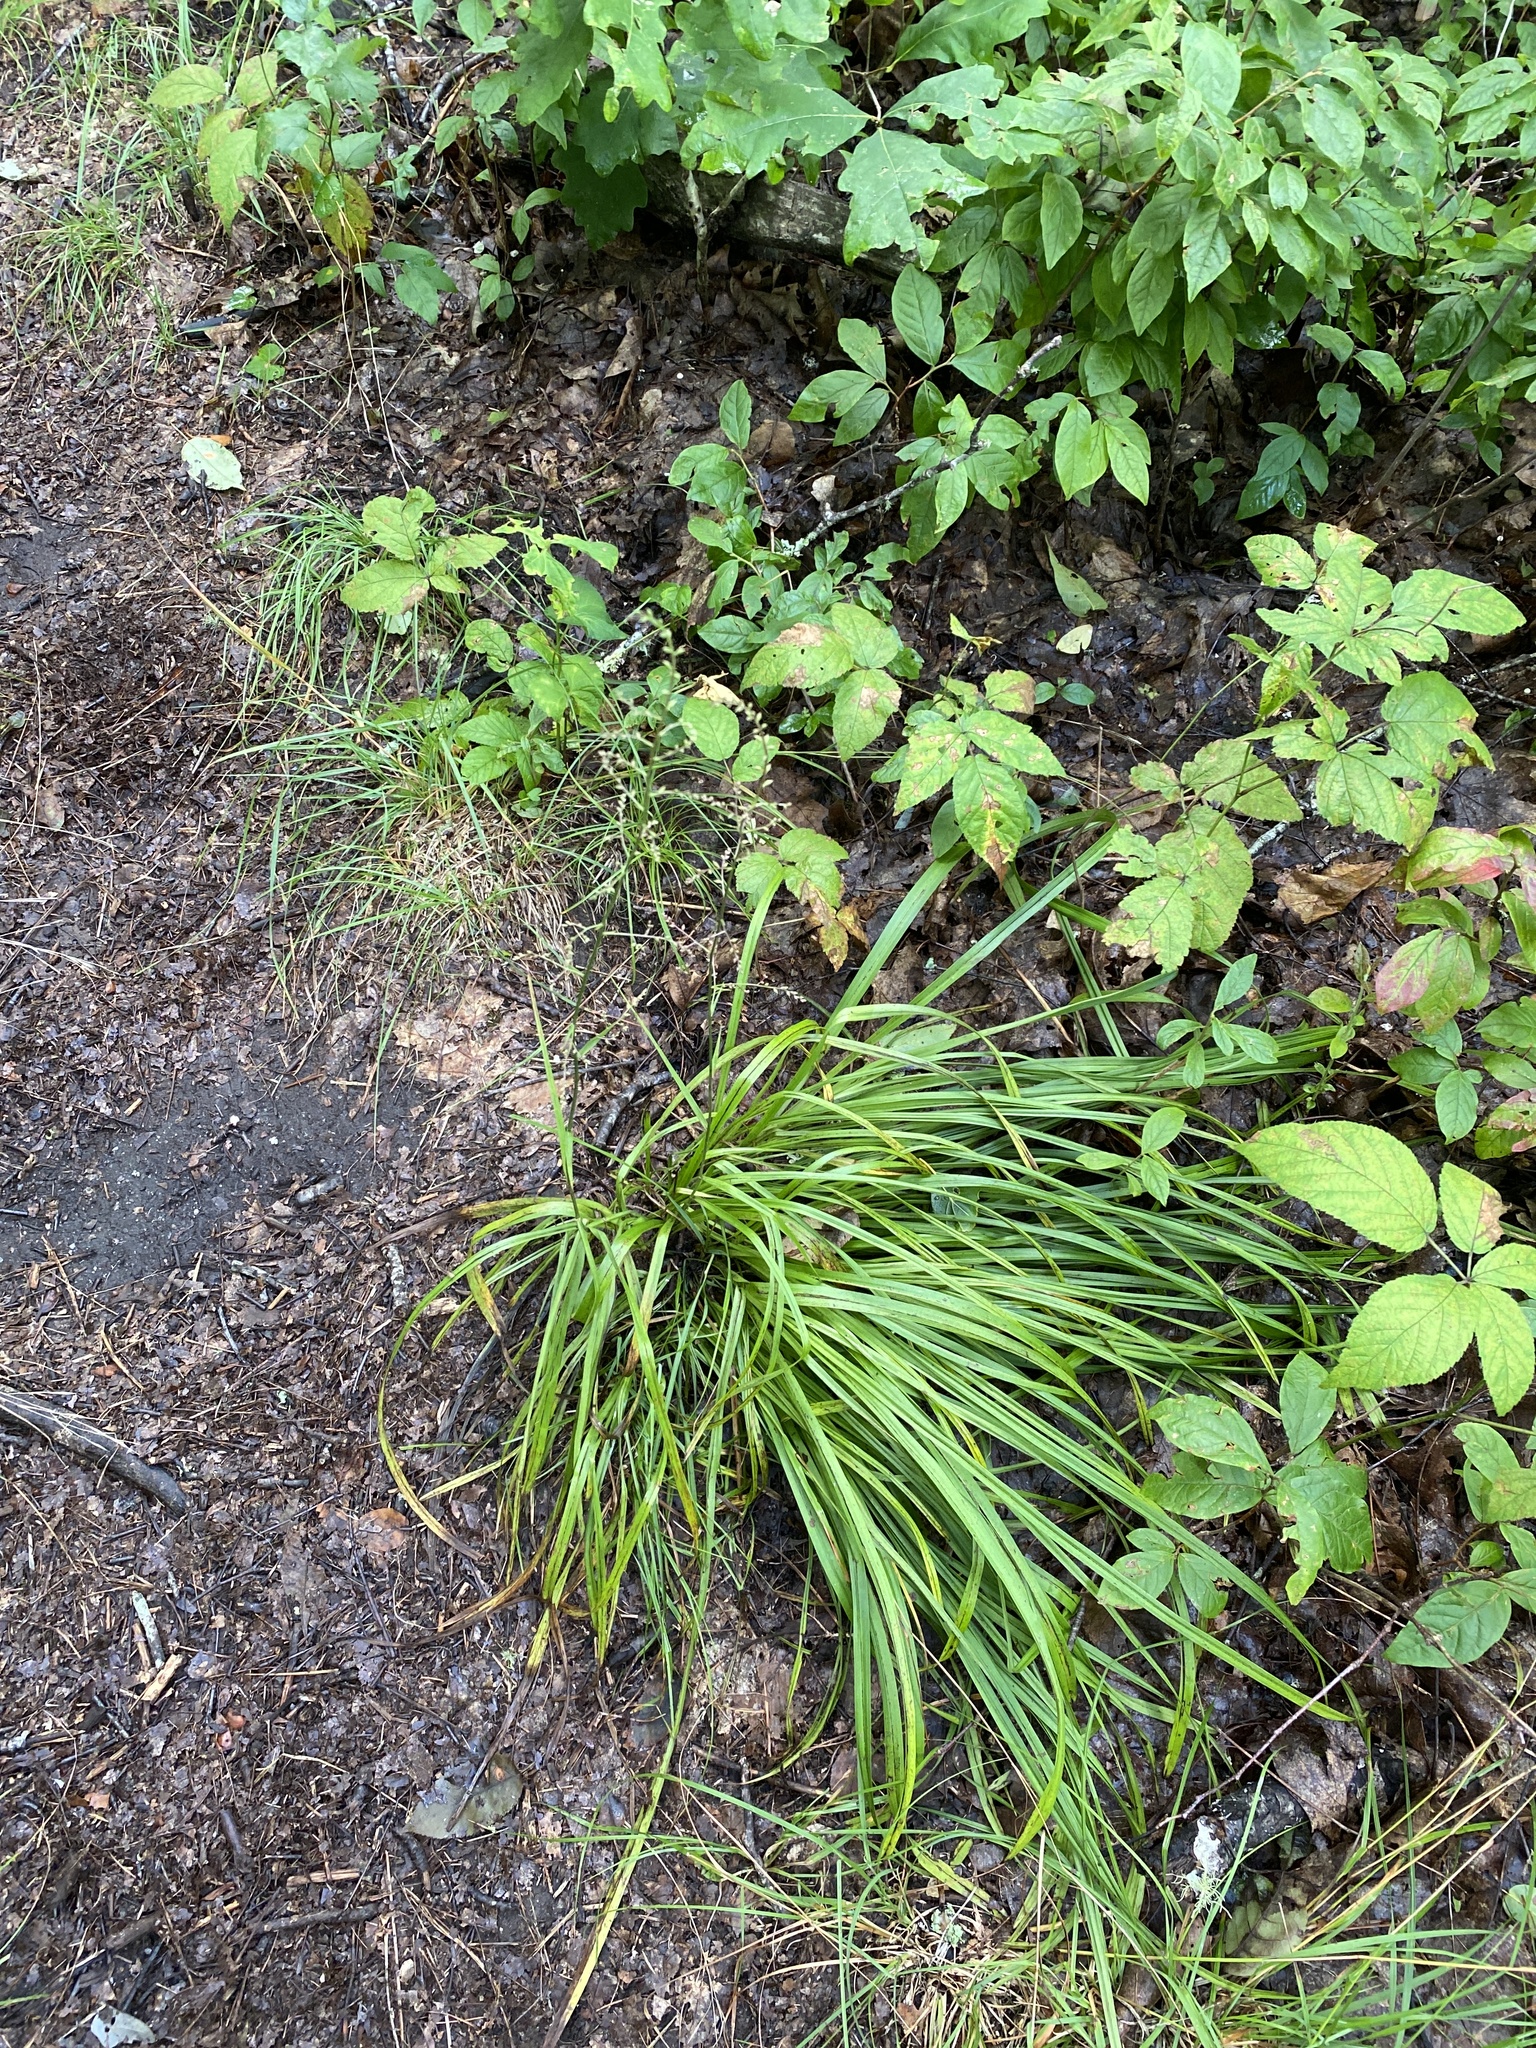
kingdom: Plantae
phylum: Tracheophyta
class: Liliopsida
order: Liliales
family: Melanthiaceae
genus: Stenanthium
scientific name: Stenanthium gramineum
